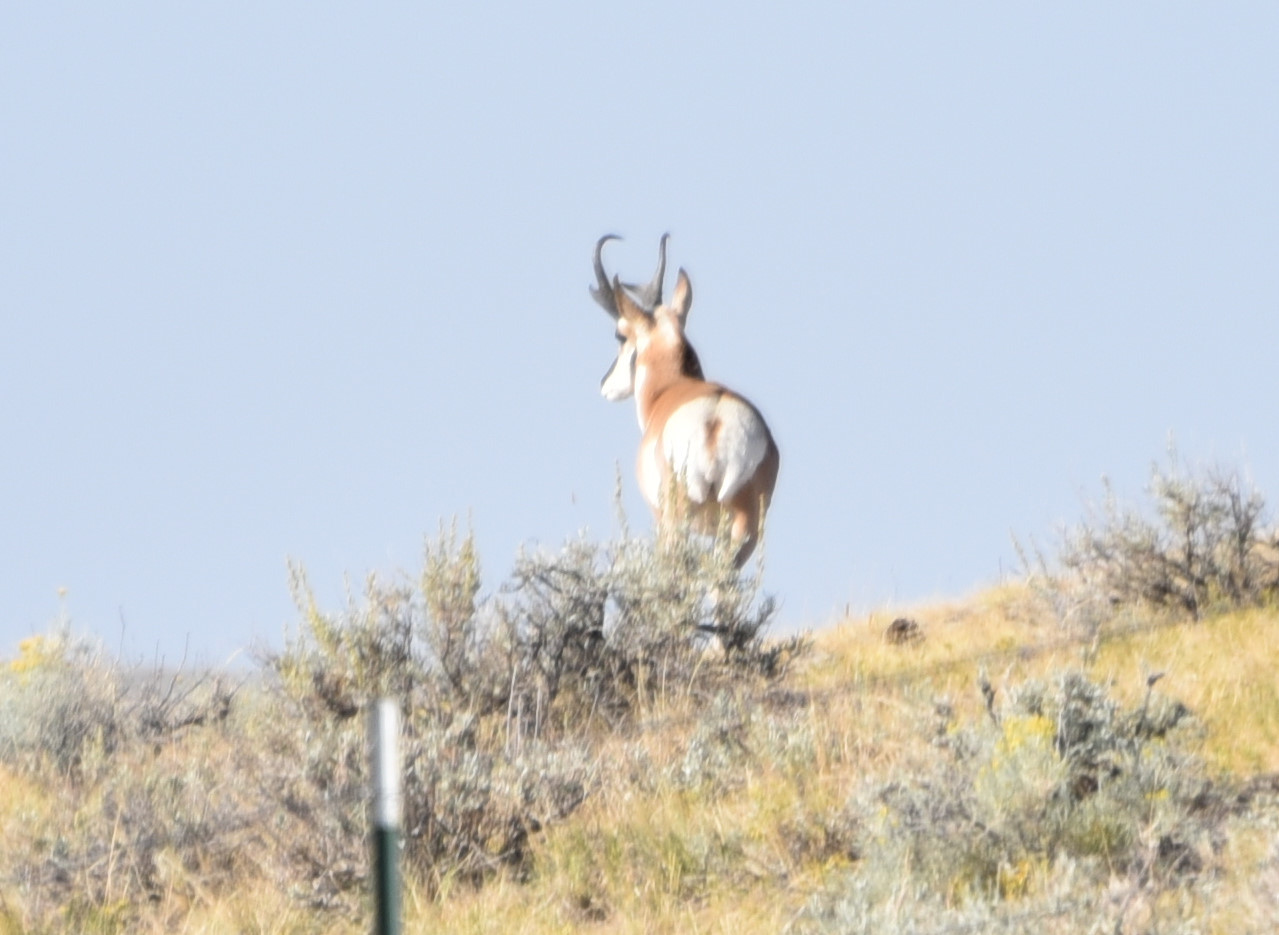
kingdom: Animalia
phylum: Chordata
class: Mammalia
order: Artiodactyla
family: Antilocapridae
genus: Antilocapra
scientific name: Antilocapra americana
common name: Pronghorn
